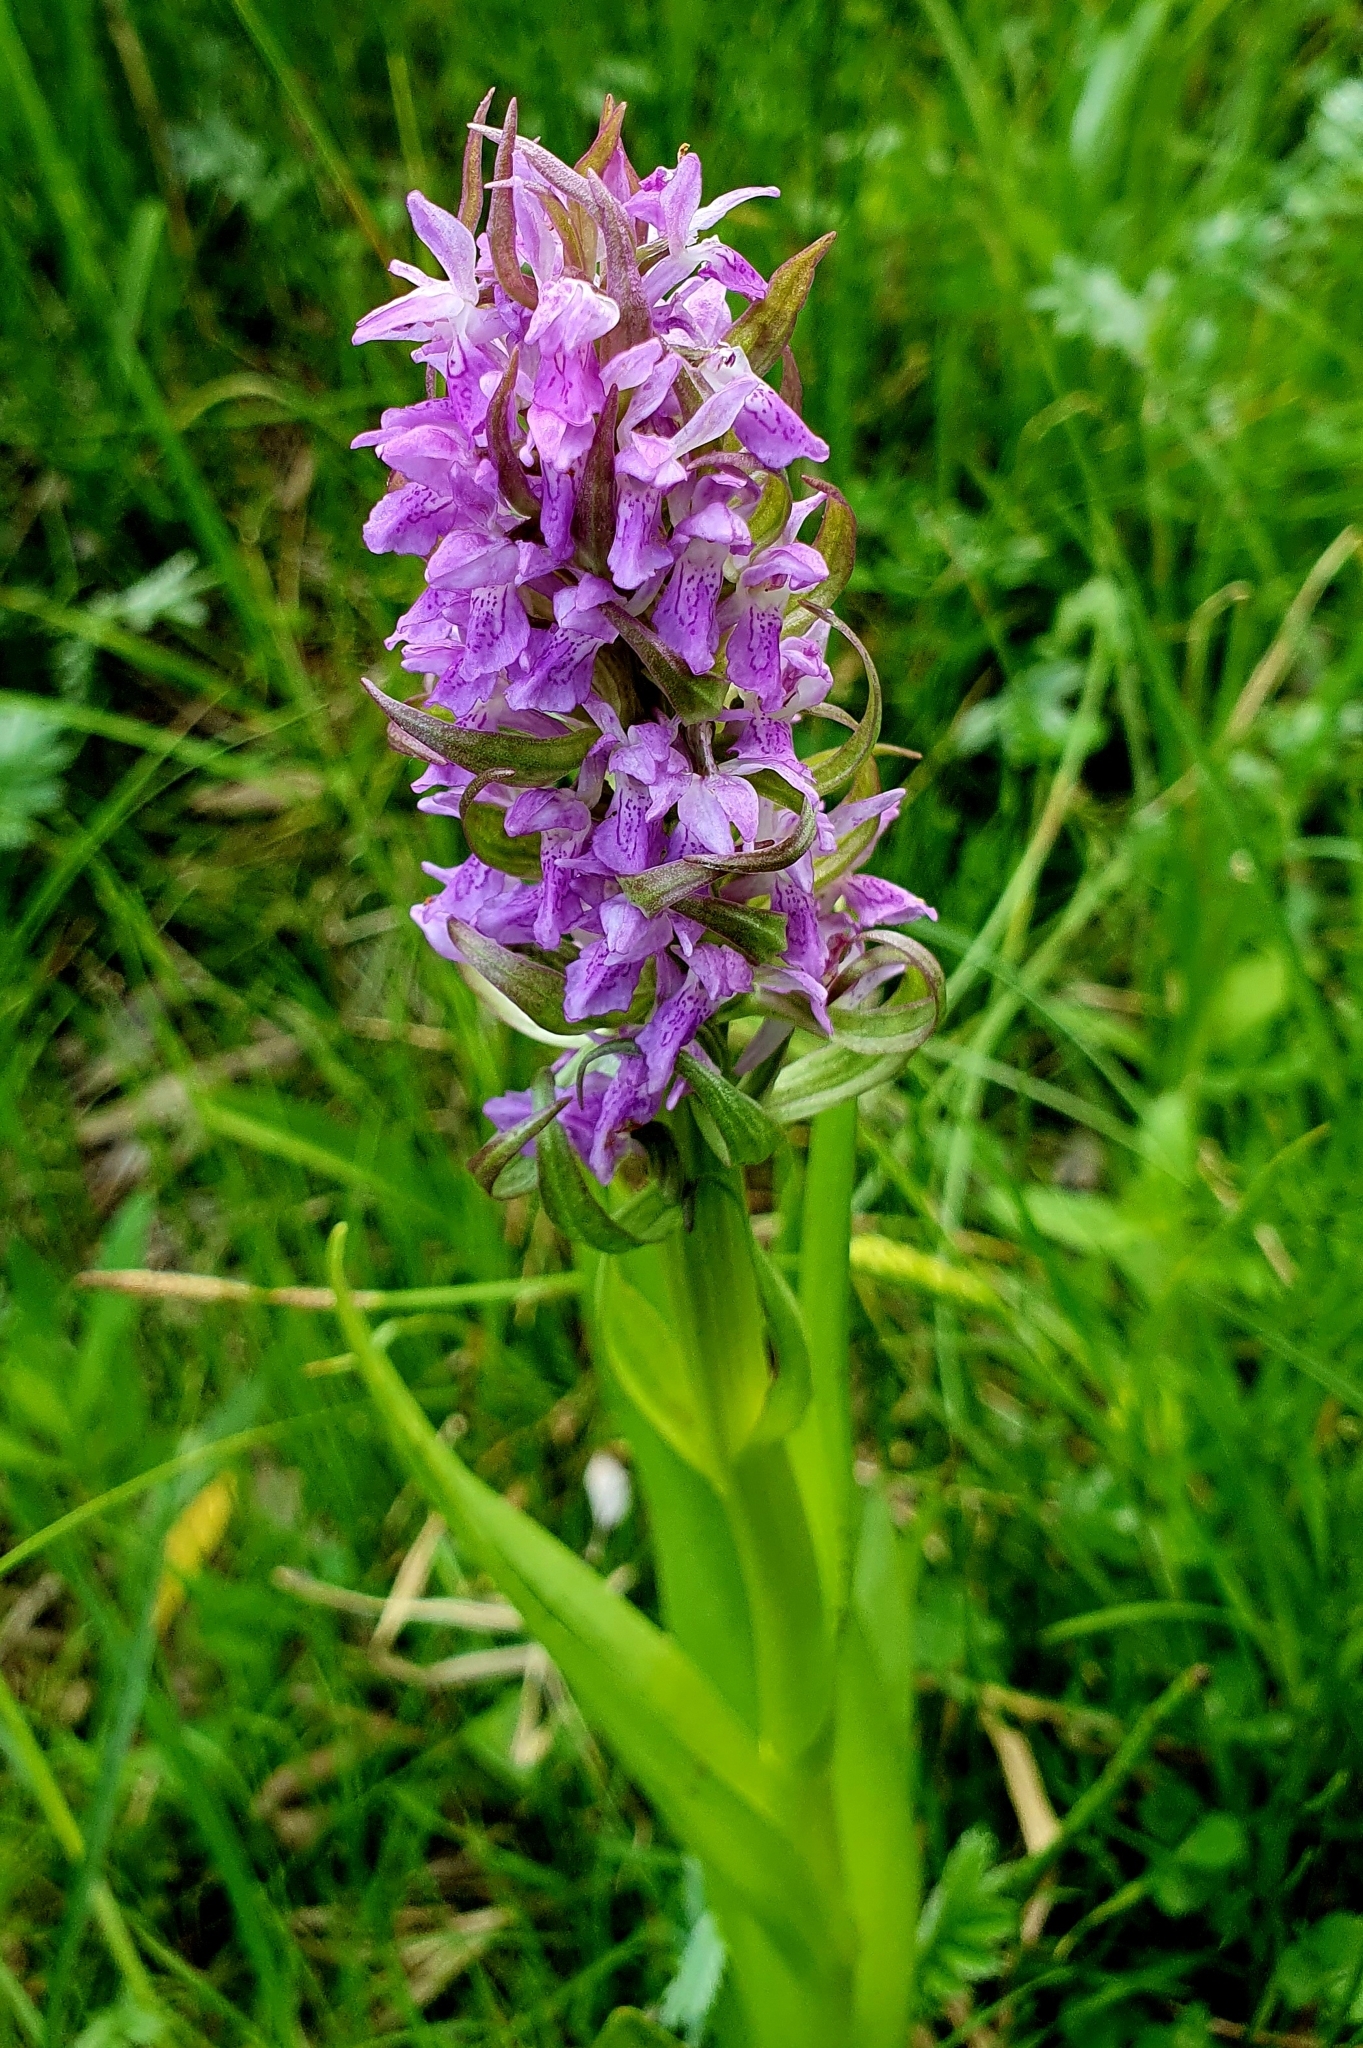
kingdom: Plantae
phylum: Tracheophyta
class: Liliopsida
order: Asparagales
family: Orchidaceae
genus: Dactylorhiza
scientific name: Dactylorhiza incarnata
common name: Early marsh-orchid
